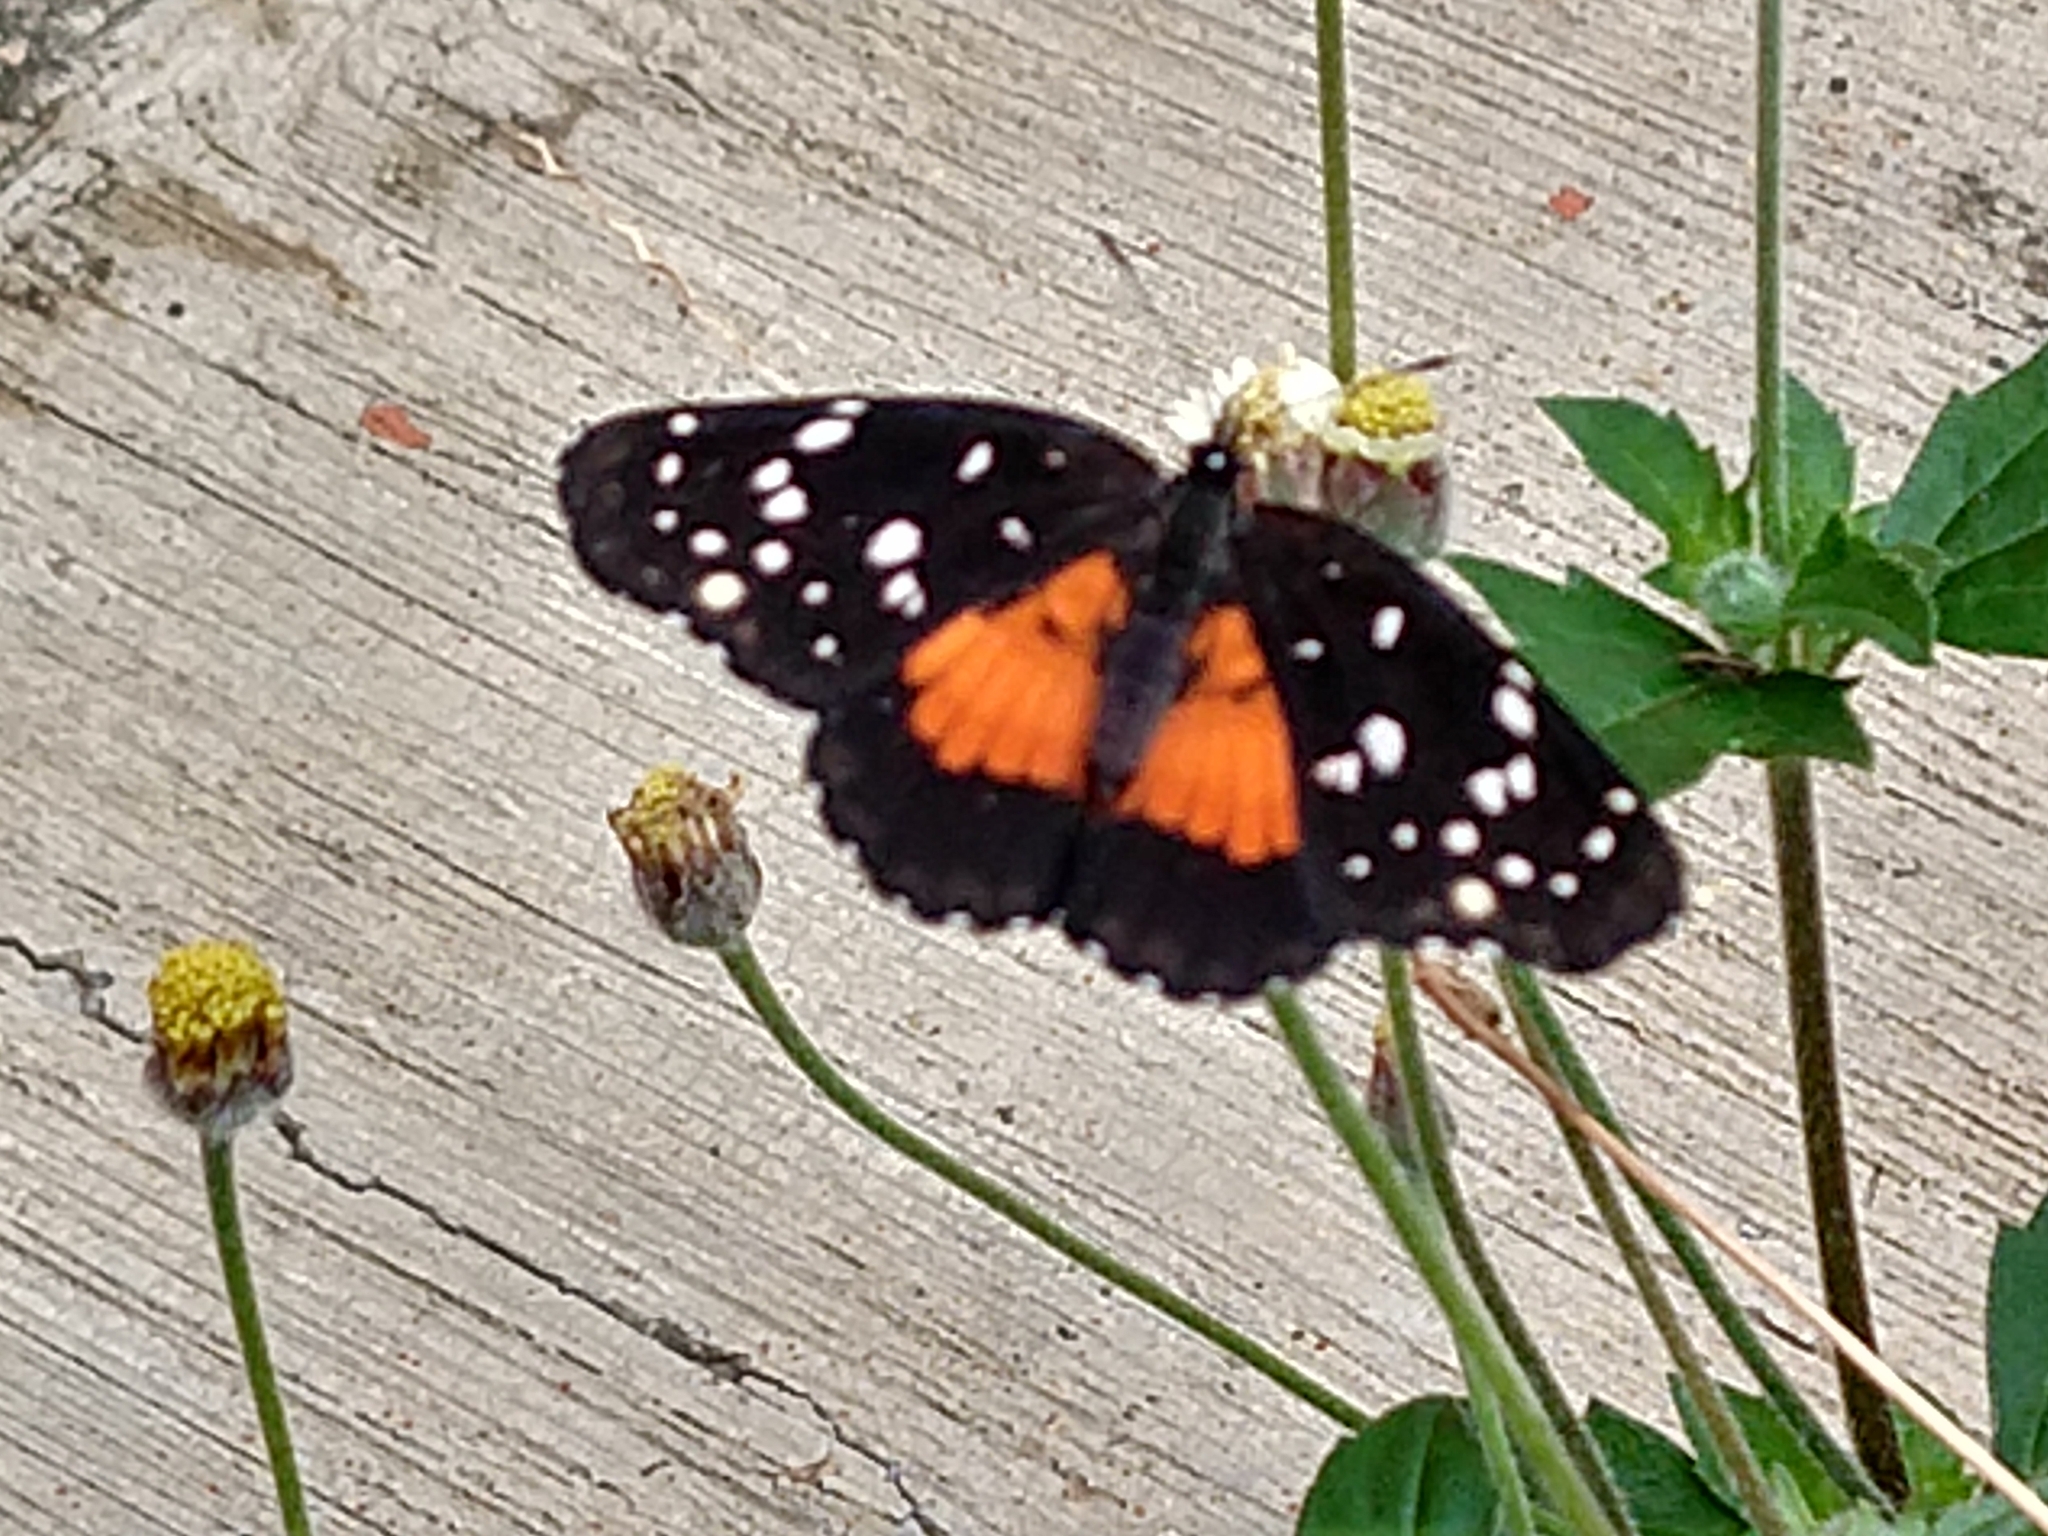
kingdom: Animalia
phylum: Arthropoda
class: Insecta
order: Lepidoptera
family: Nymphalidae
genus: Chlosyne
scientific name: Chlosyne lacinia
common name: Bordered patch
